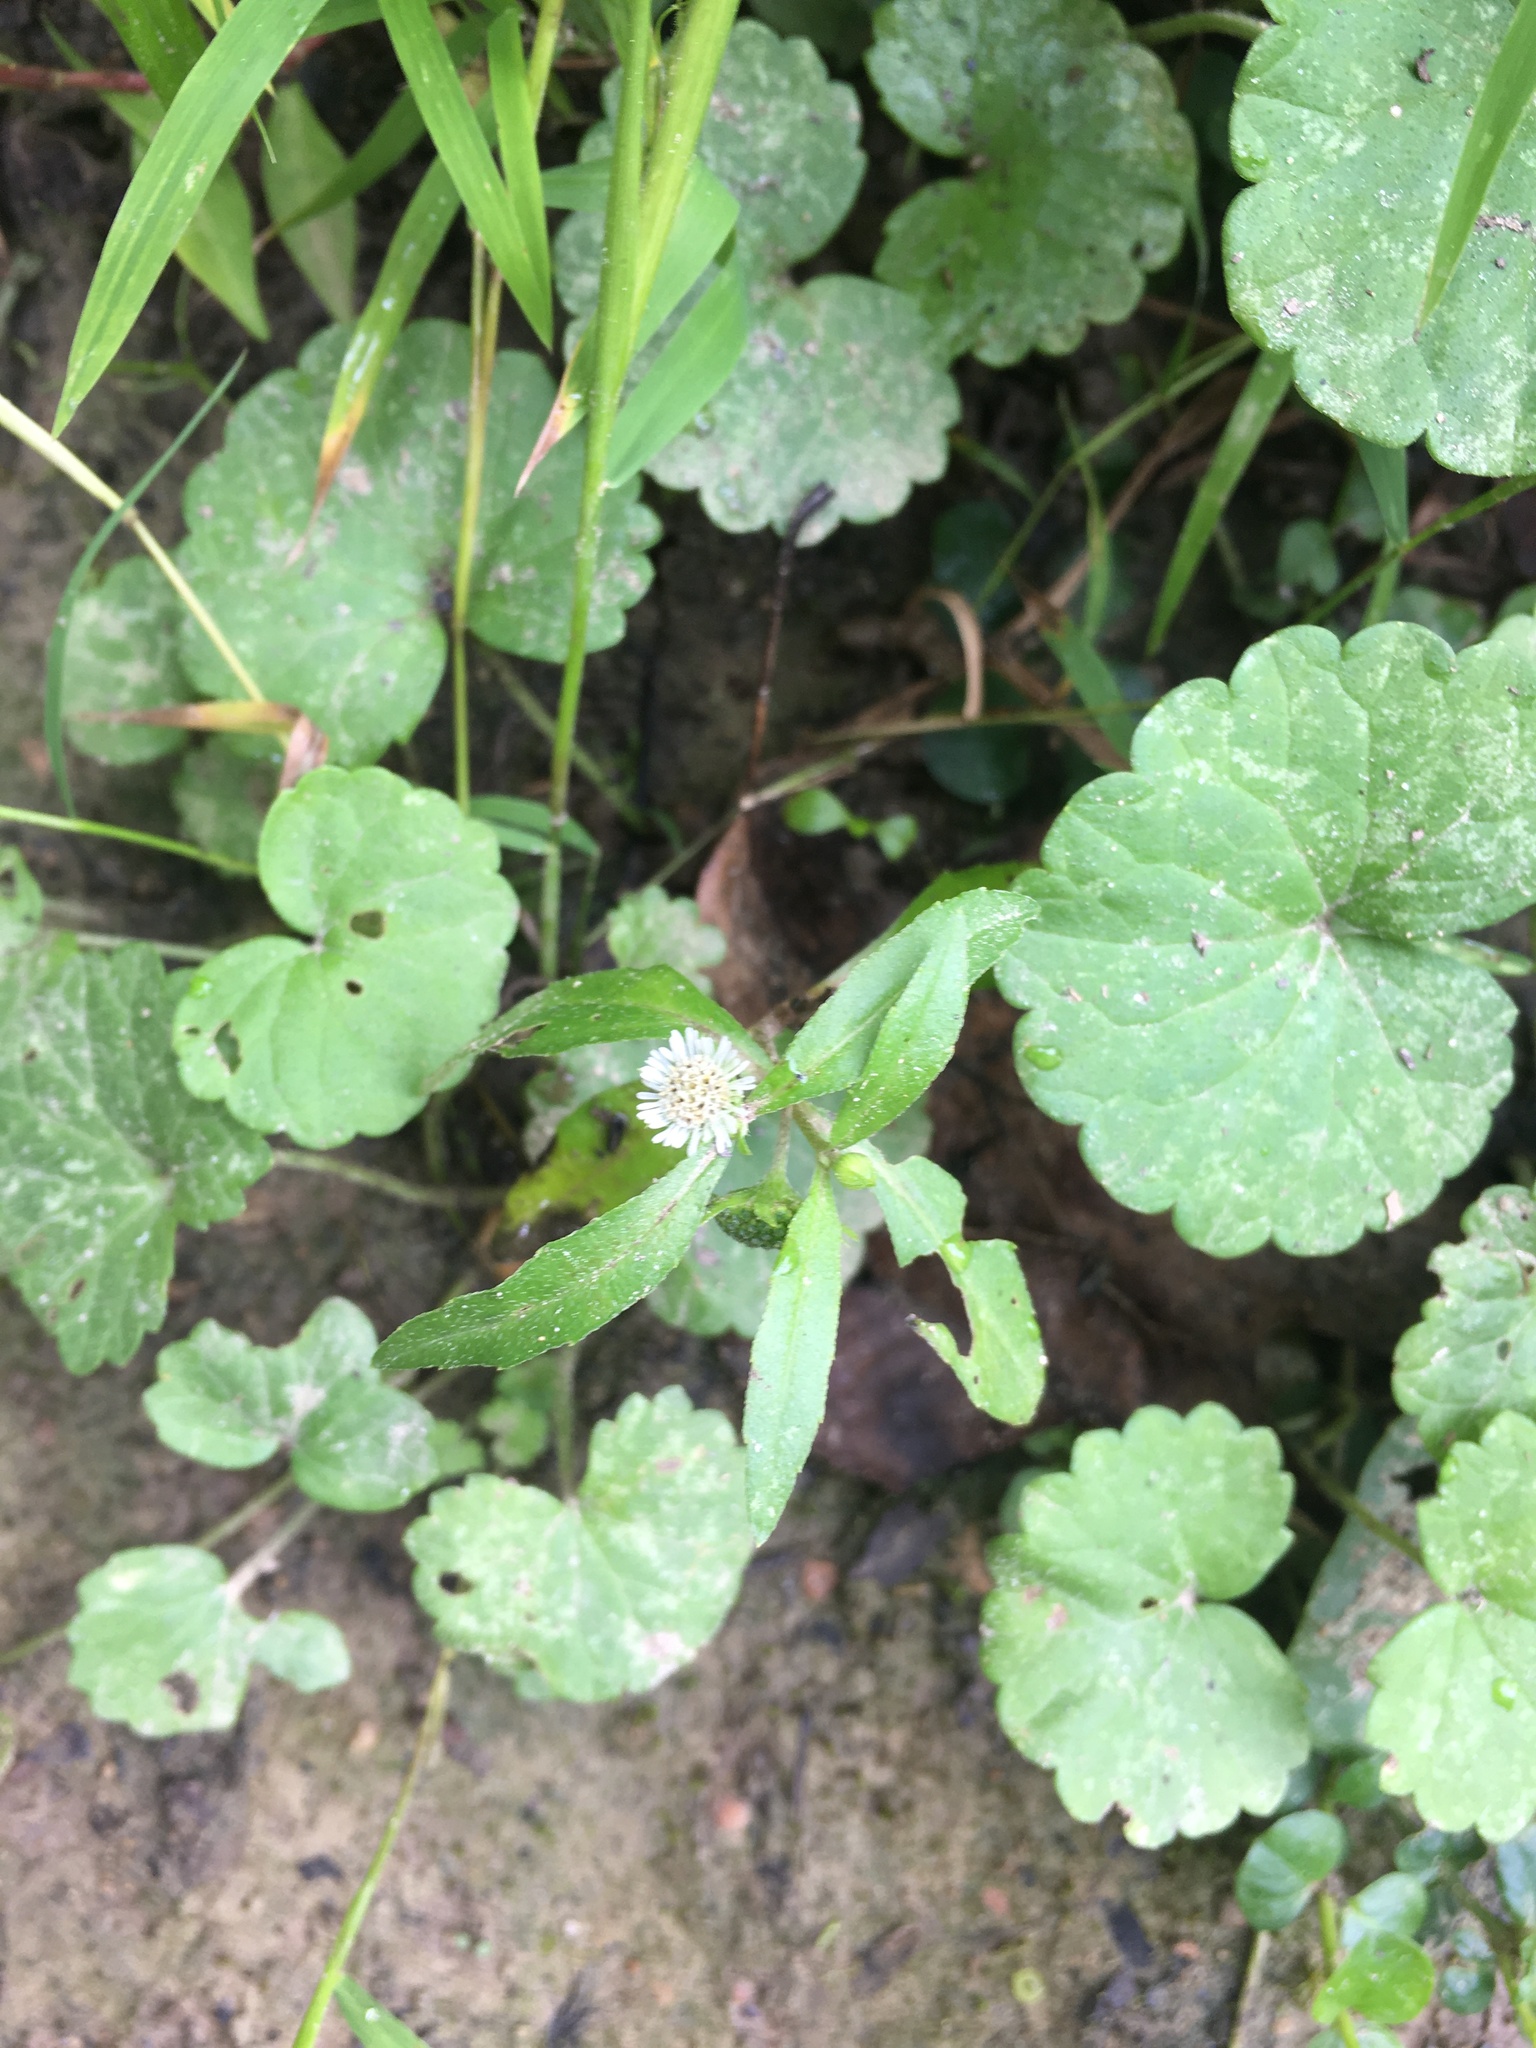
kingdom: Plantae
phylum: Tracheophyta
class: Magnoliopsida
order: Asterales
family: Asteraceae
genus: Eclipta
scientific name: Eclipta prostrata
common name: False daisy
